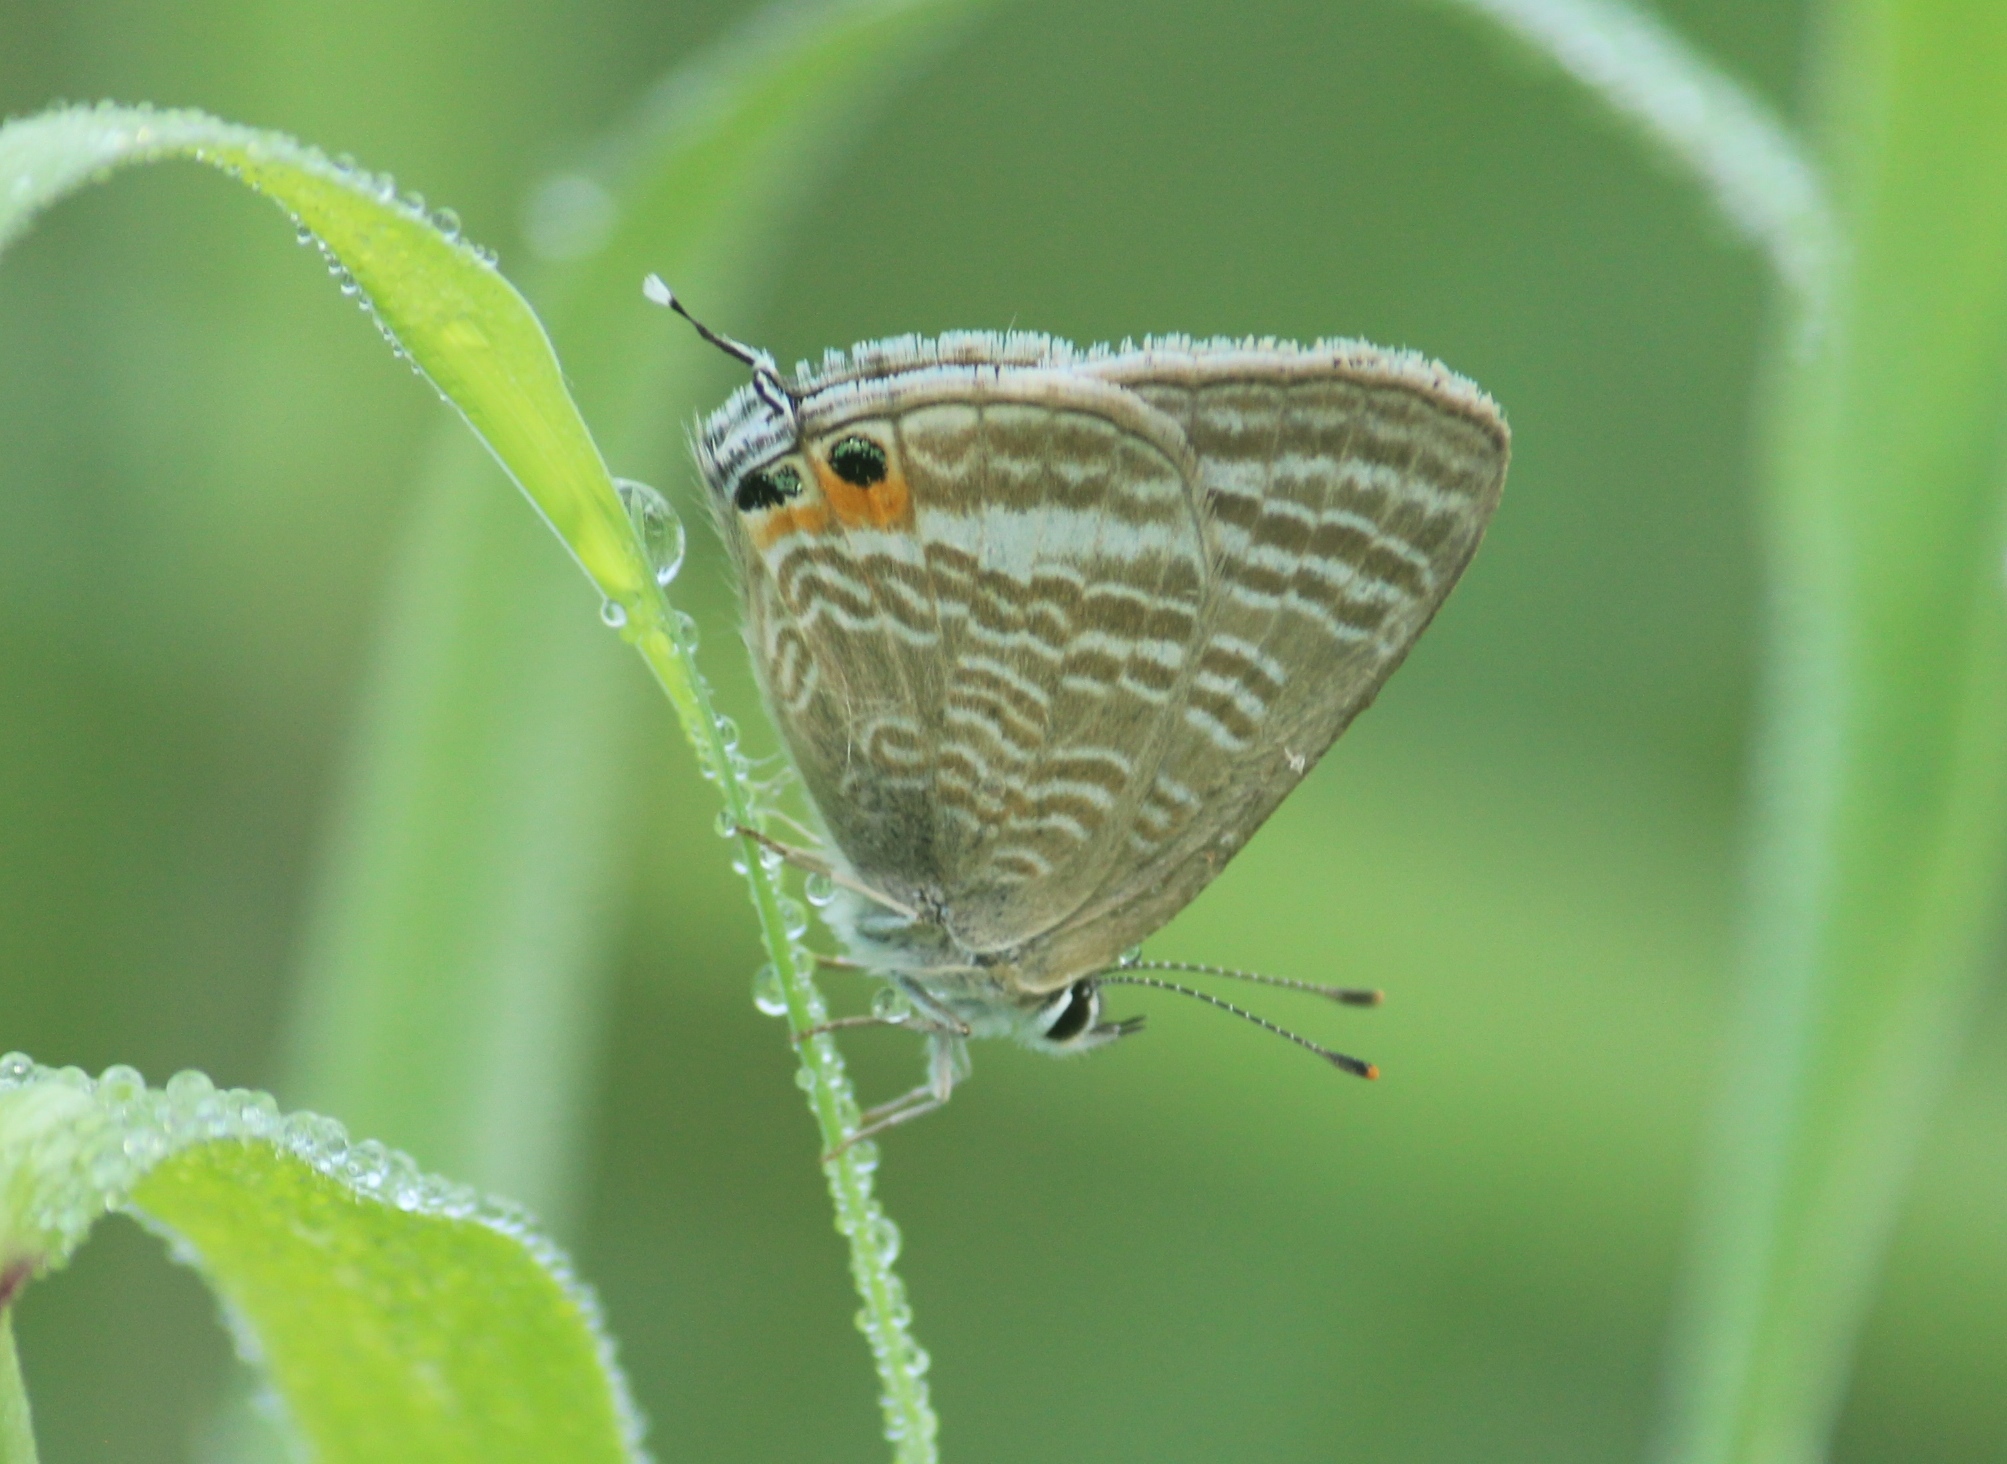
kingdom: Animalia
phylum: Arthropoda
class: Insecta
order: Lepidoptera
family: Lycaenidae
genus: Lampides
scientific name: Lampides boeticus
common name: Long-tailed blue
